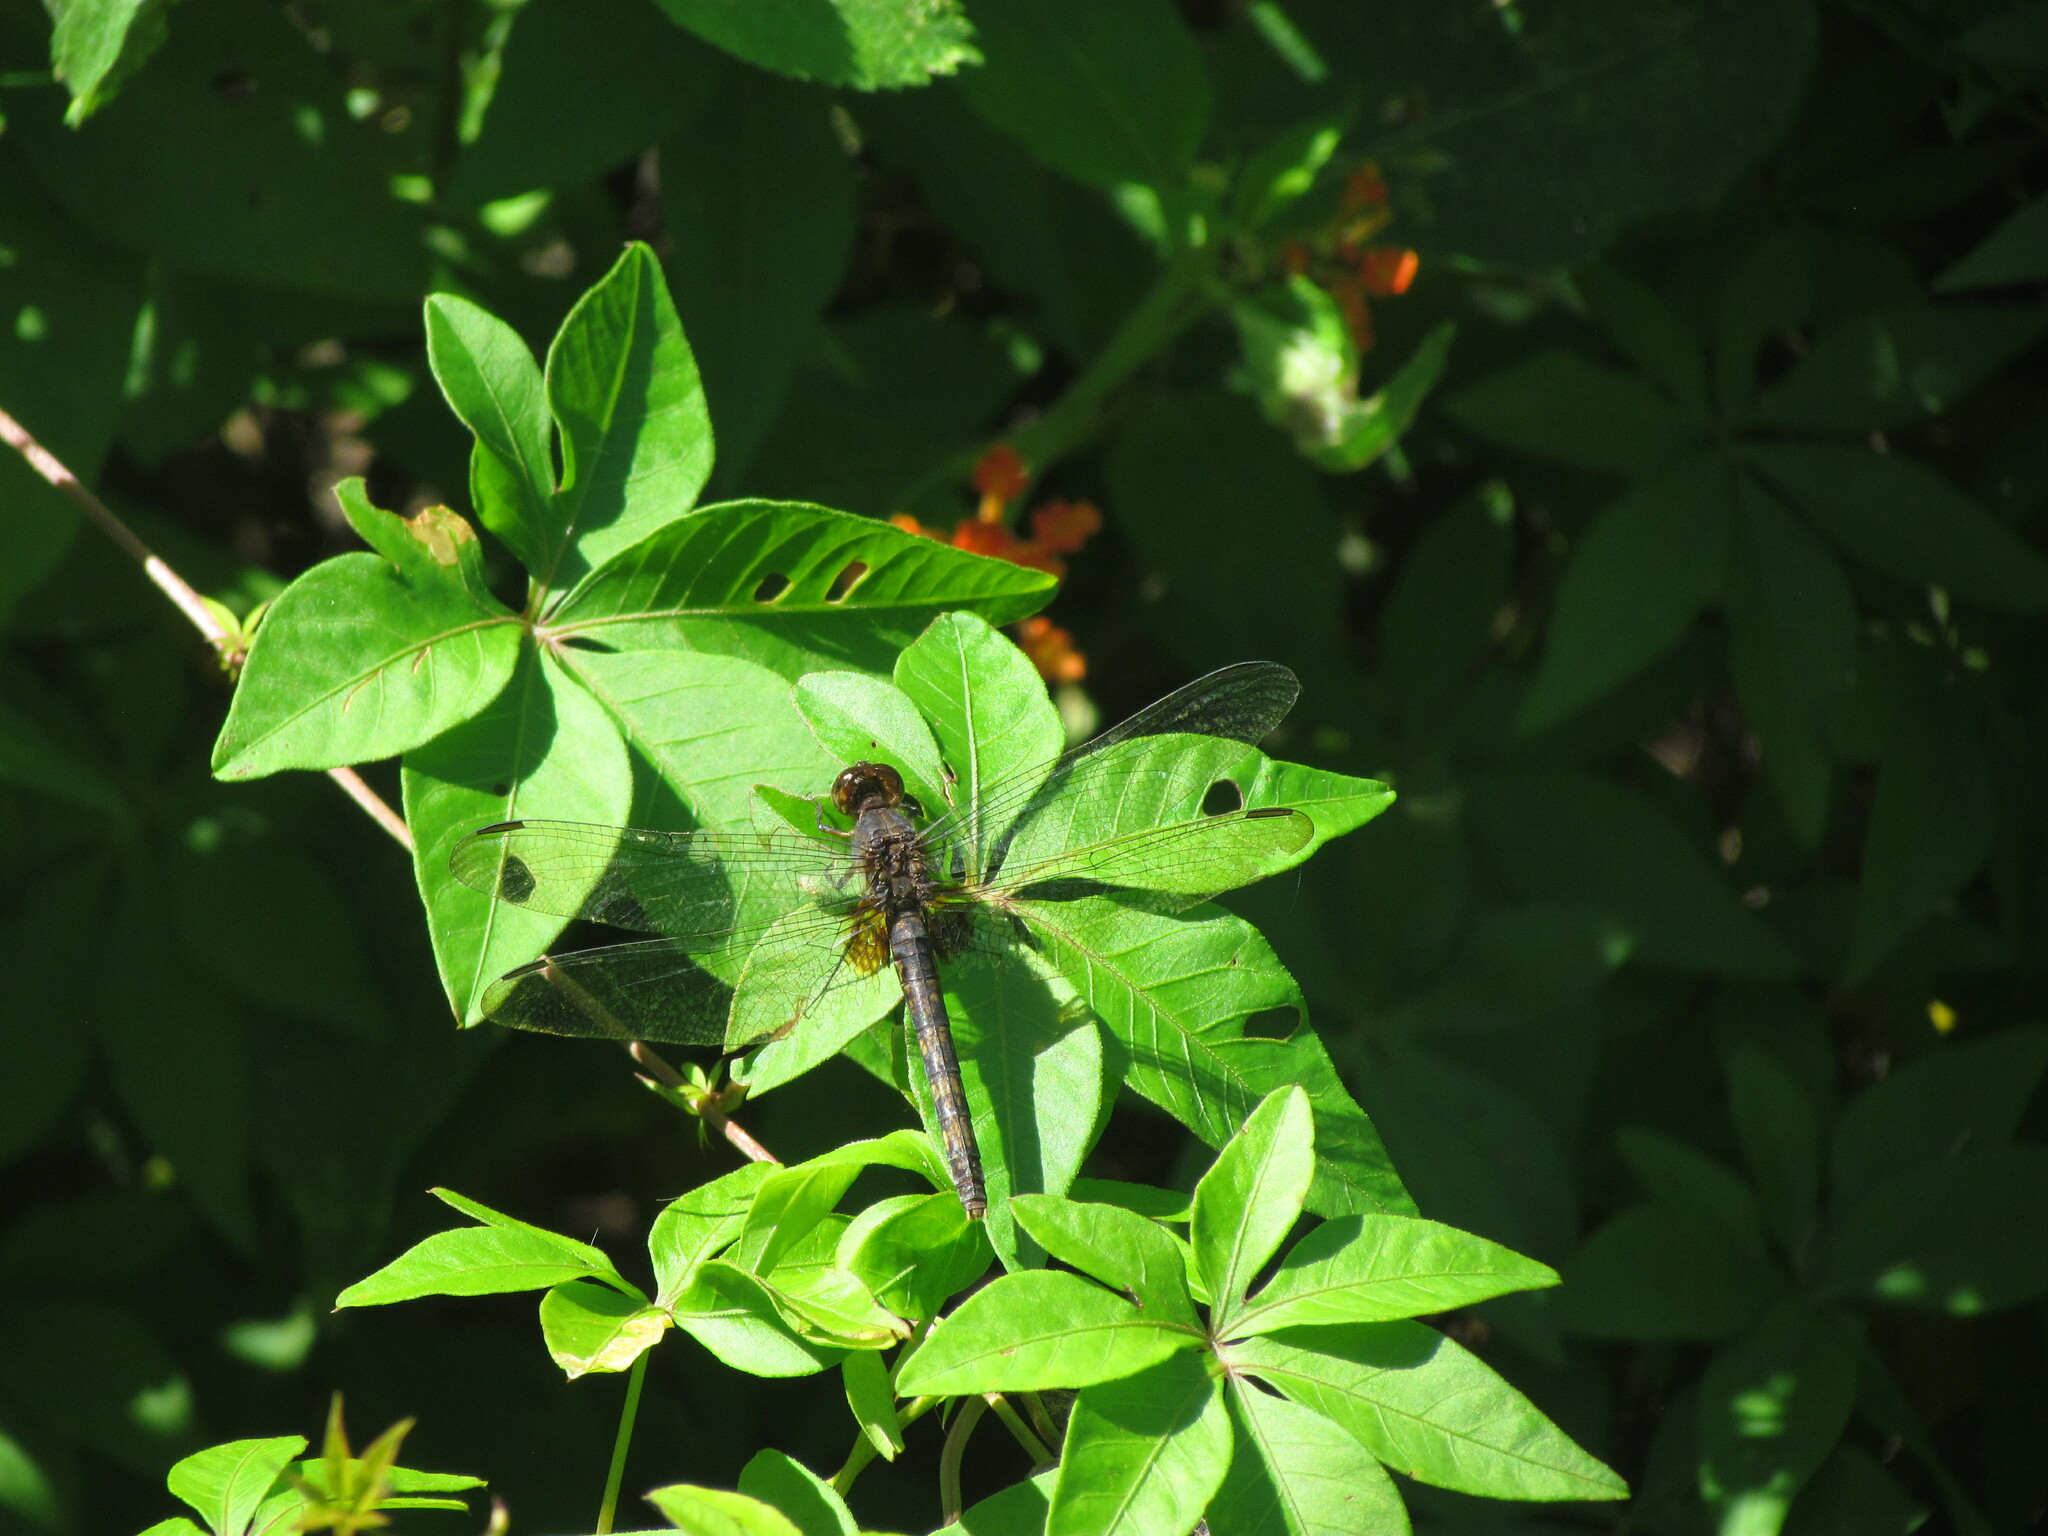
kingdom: Animalia
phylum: Arthropoda
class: Insecta
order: Odonata
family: Libellulidae
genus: Erythemis
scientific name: Erythemis attala
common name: Black pondhawk
